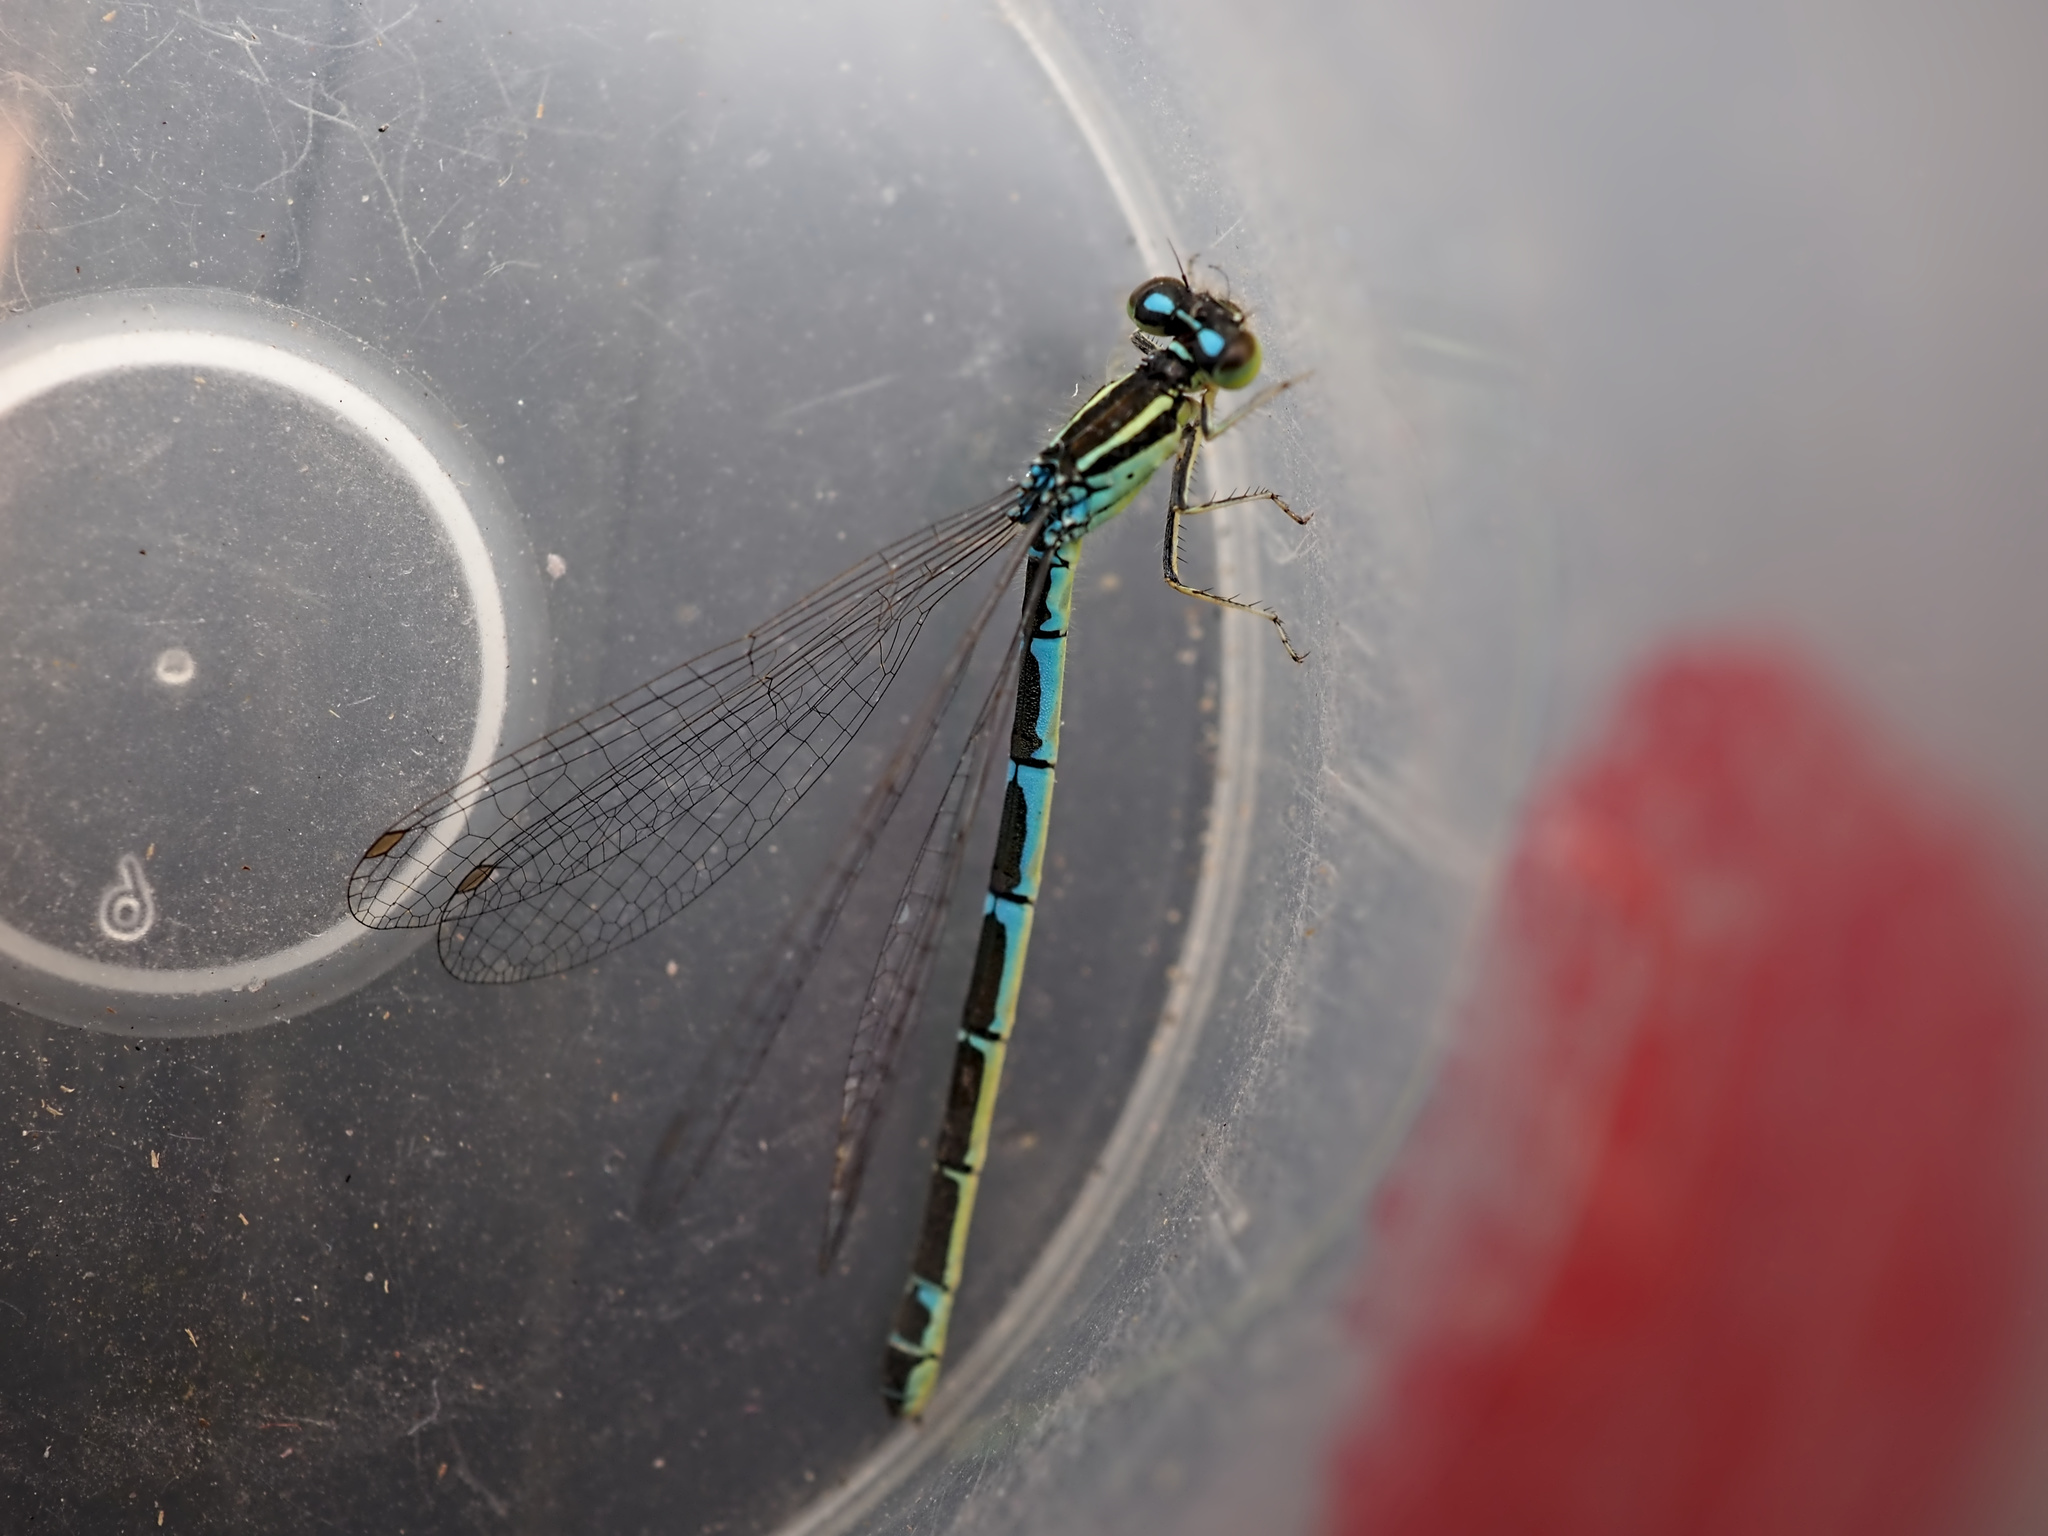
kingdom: Animalia
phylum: Arthropoda
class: Insecta
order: Odonata
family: Coenagrionidae
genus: Coenagrion
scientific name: Coenagrion scitulum
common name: Dainty bluet
